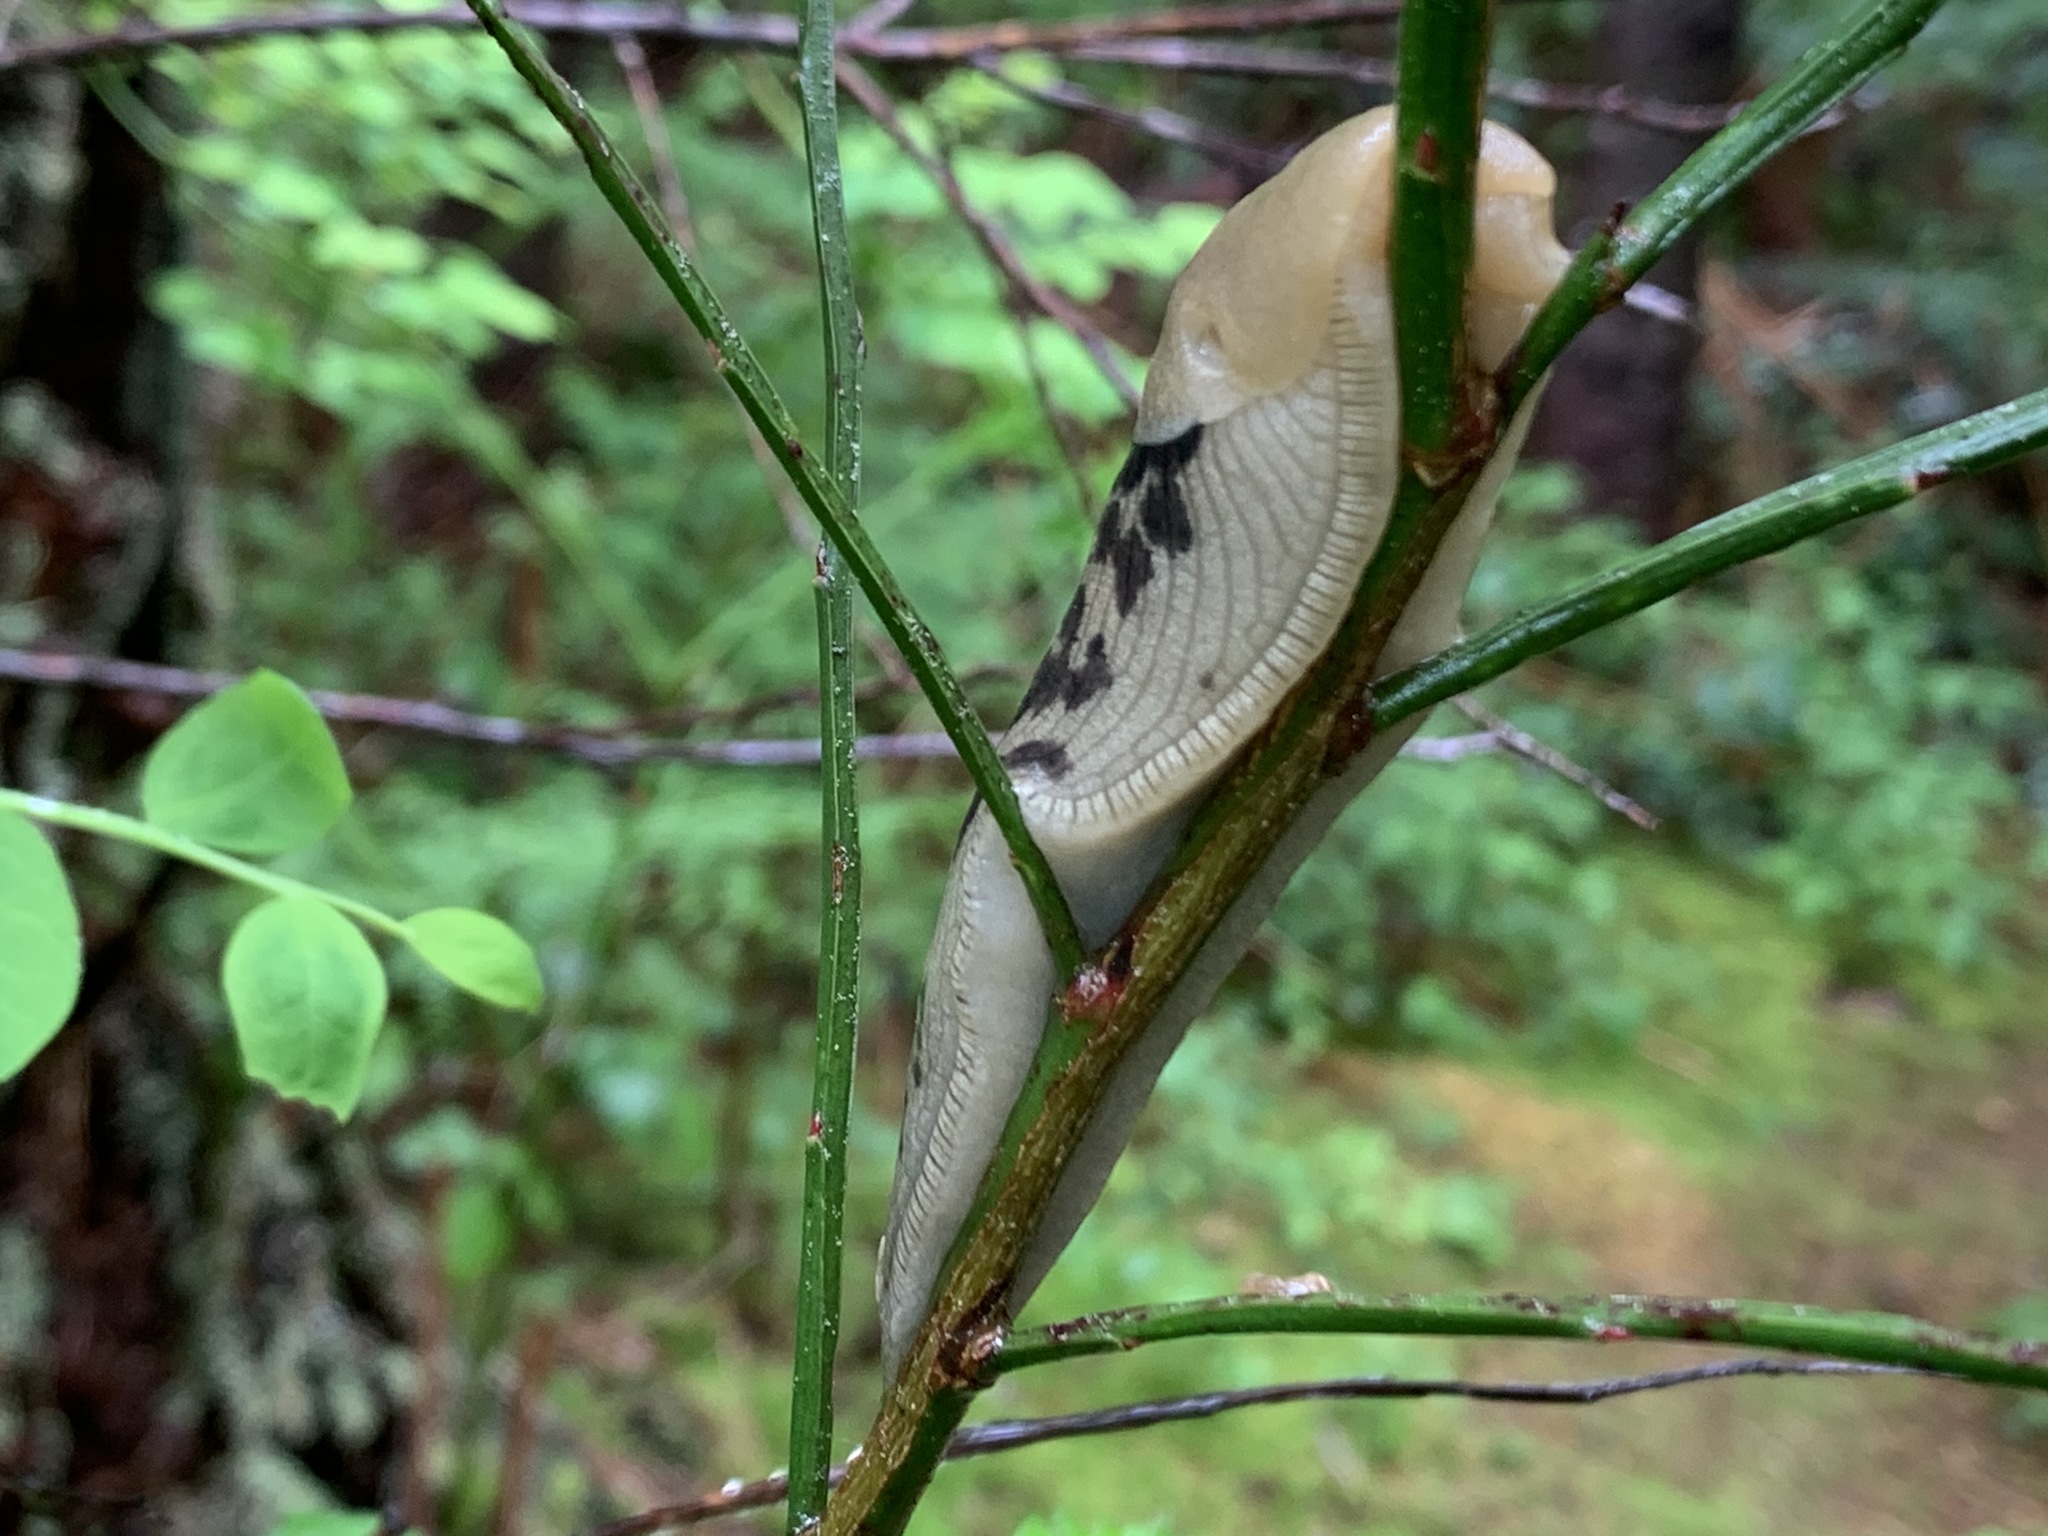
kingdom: Animalia
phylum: Mollusca
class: Gastropoda
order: Stylommatophora
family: Ariolimacidae
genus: Ariolimax
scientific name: Ariolimax columbianus
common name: Pacific banana slug
